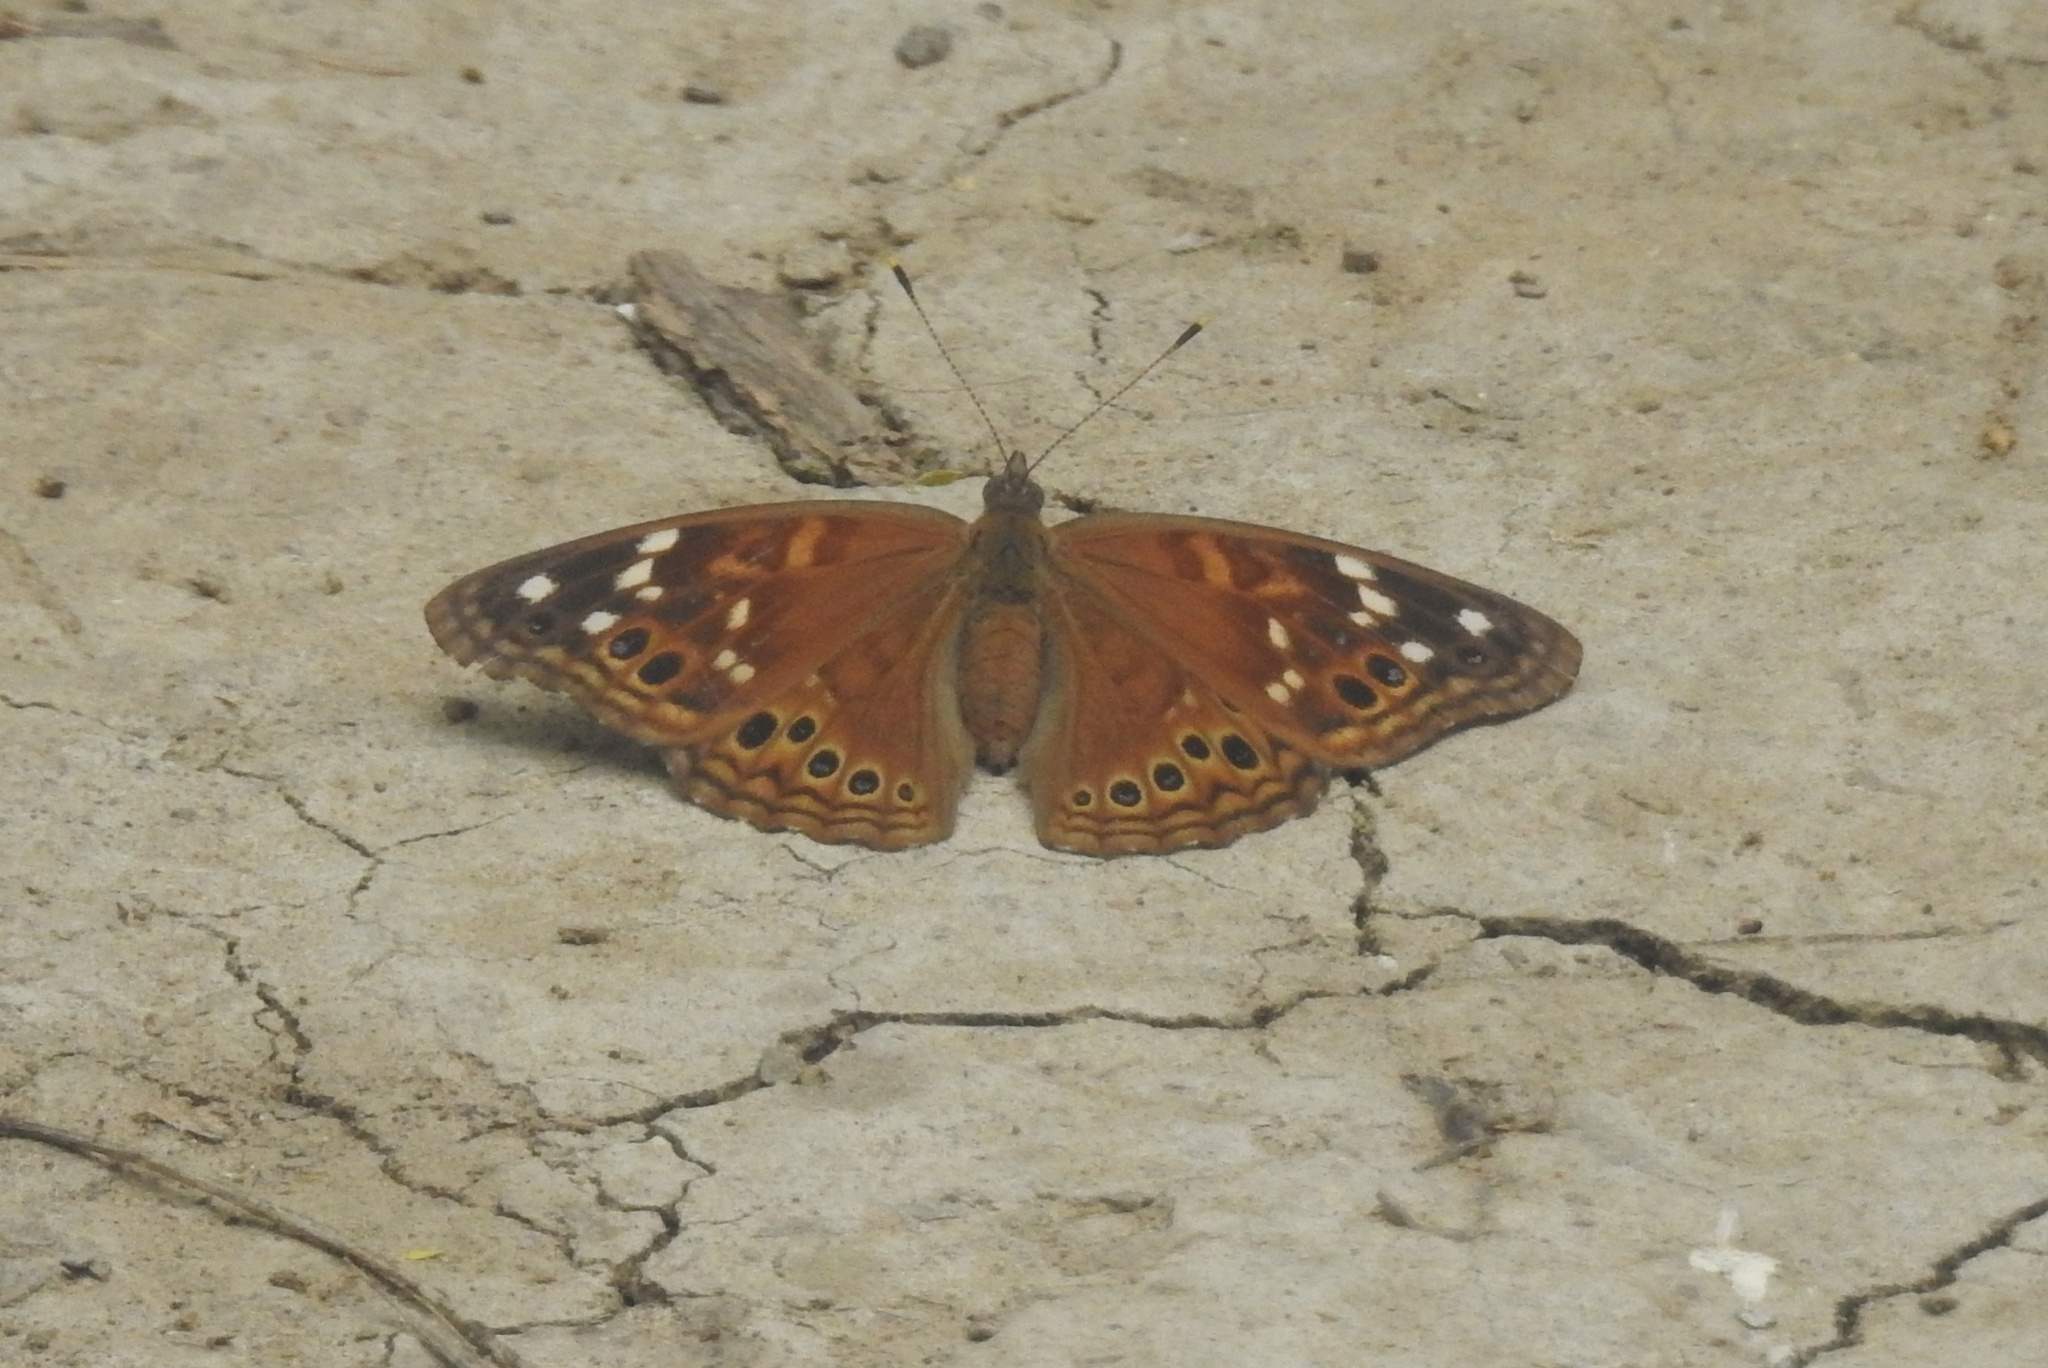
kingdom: Animalia
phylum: Arthropoda
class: Insecta
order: Lepidoptera
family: Nymphalidae
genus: Asterocampa
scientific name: Asterocampa leilia
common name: Empress leilia
